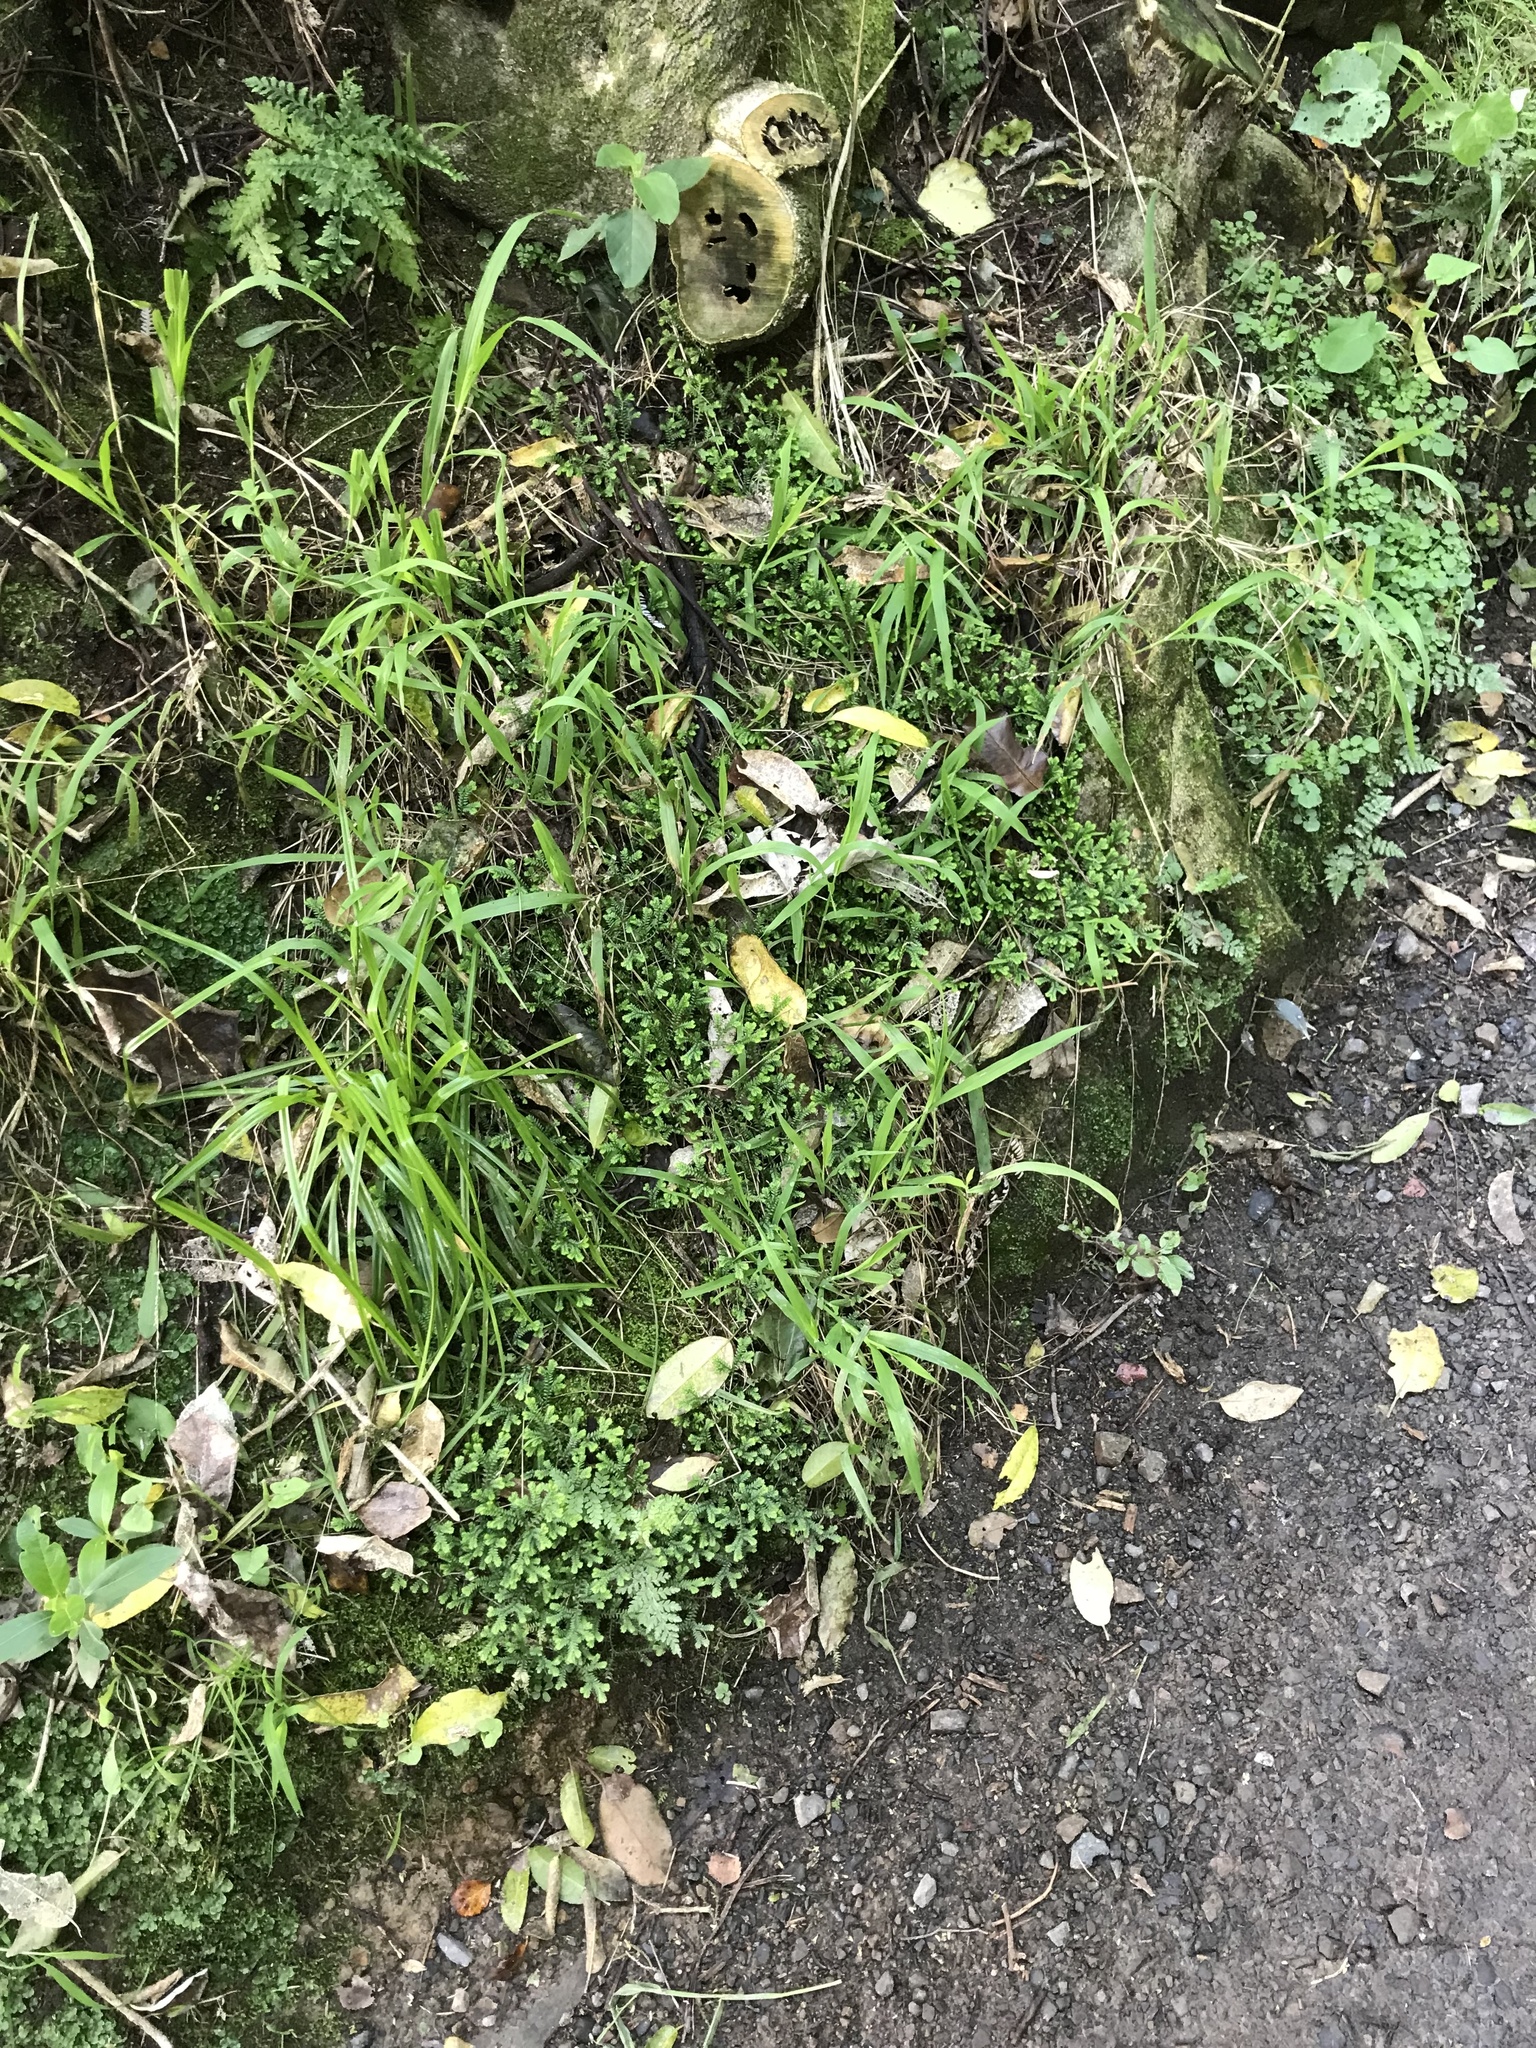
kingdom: Plantae
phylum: Tracheophyta
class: Lycopodiopsida
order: Selaginellales
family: Selaginellaceae
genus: Selaginella
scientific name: Selaginella kraussiana
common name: Krauss' spikemoss
